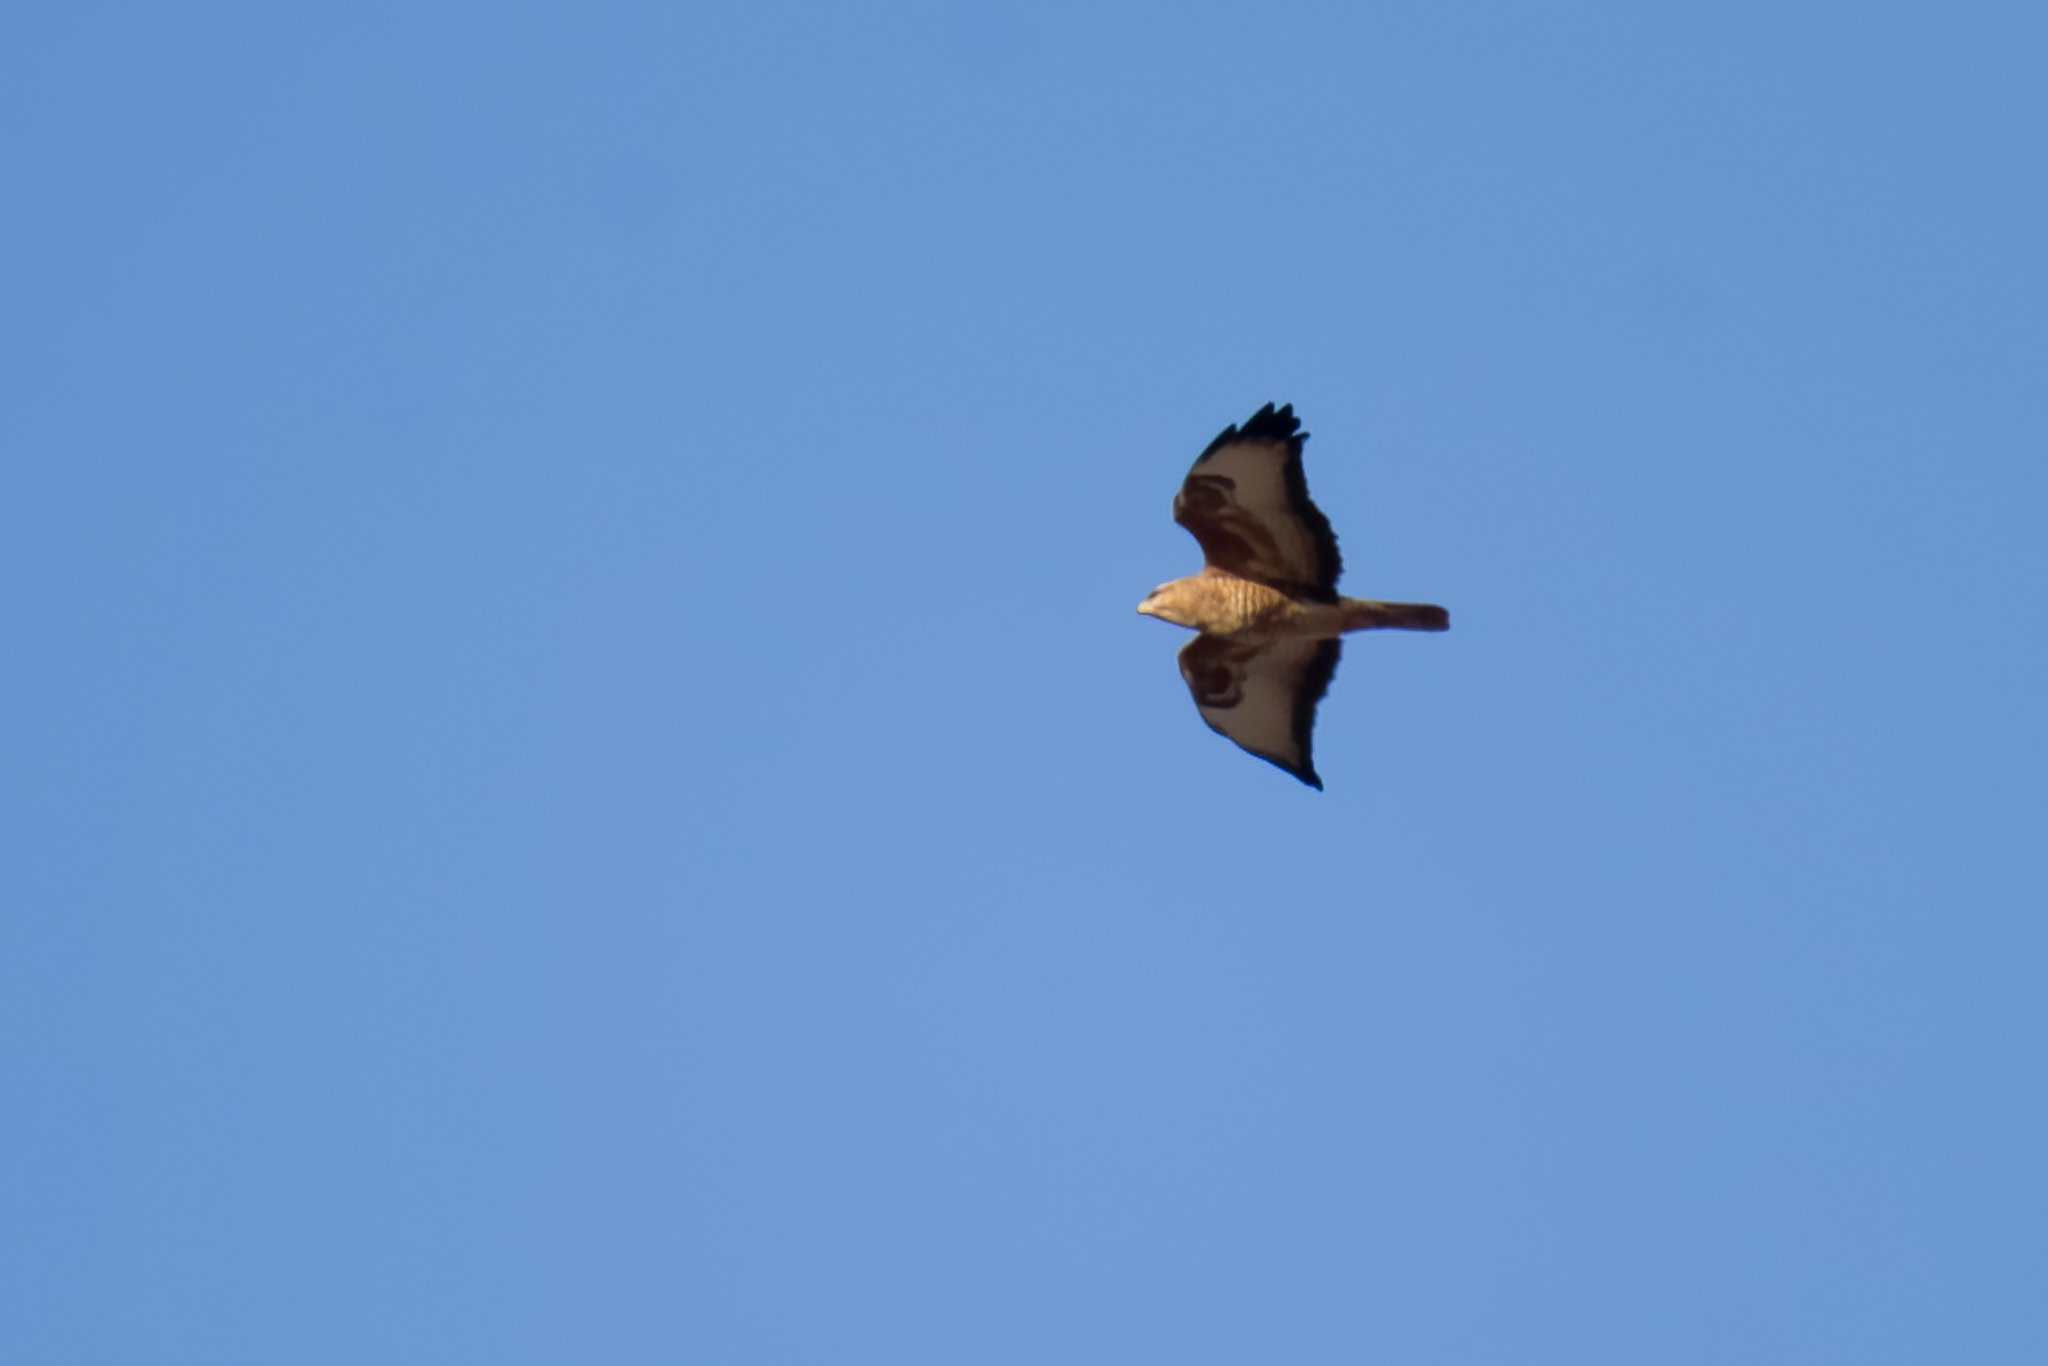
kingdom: Animalia
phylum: Chordata
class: Aves
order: Accipitriformes
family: Accipitridae
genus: Buteo
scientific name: Buteo buteo
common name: Common buzzard
